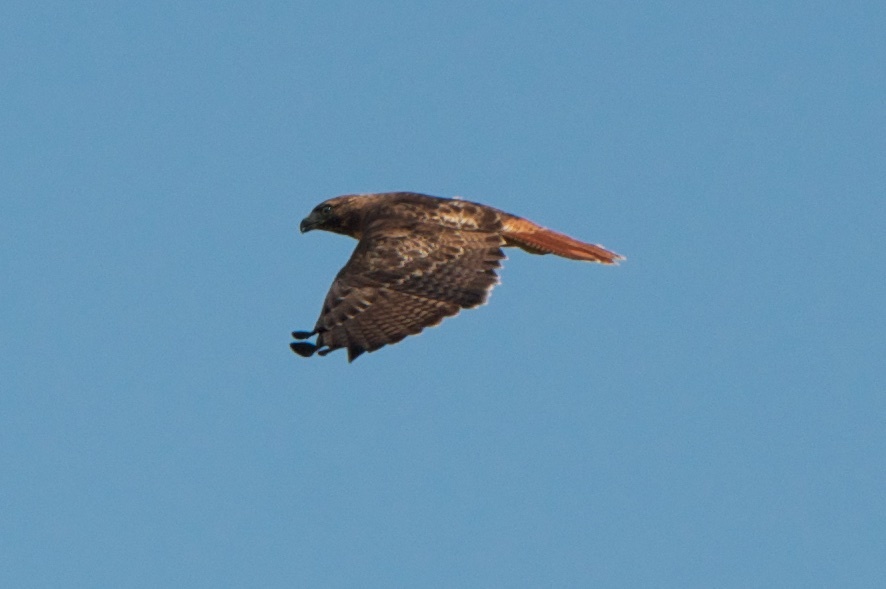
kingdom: Animalia
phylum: Chordata
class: Aves
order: Accipitriformes
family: Accipitridae
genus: Buteo
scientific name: Buteo jamaicensis
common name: Red-tailed hawk
